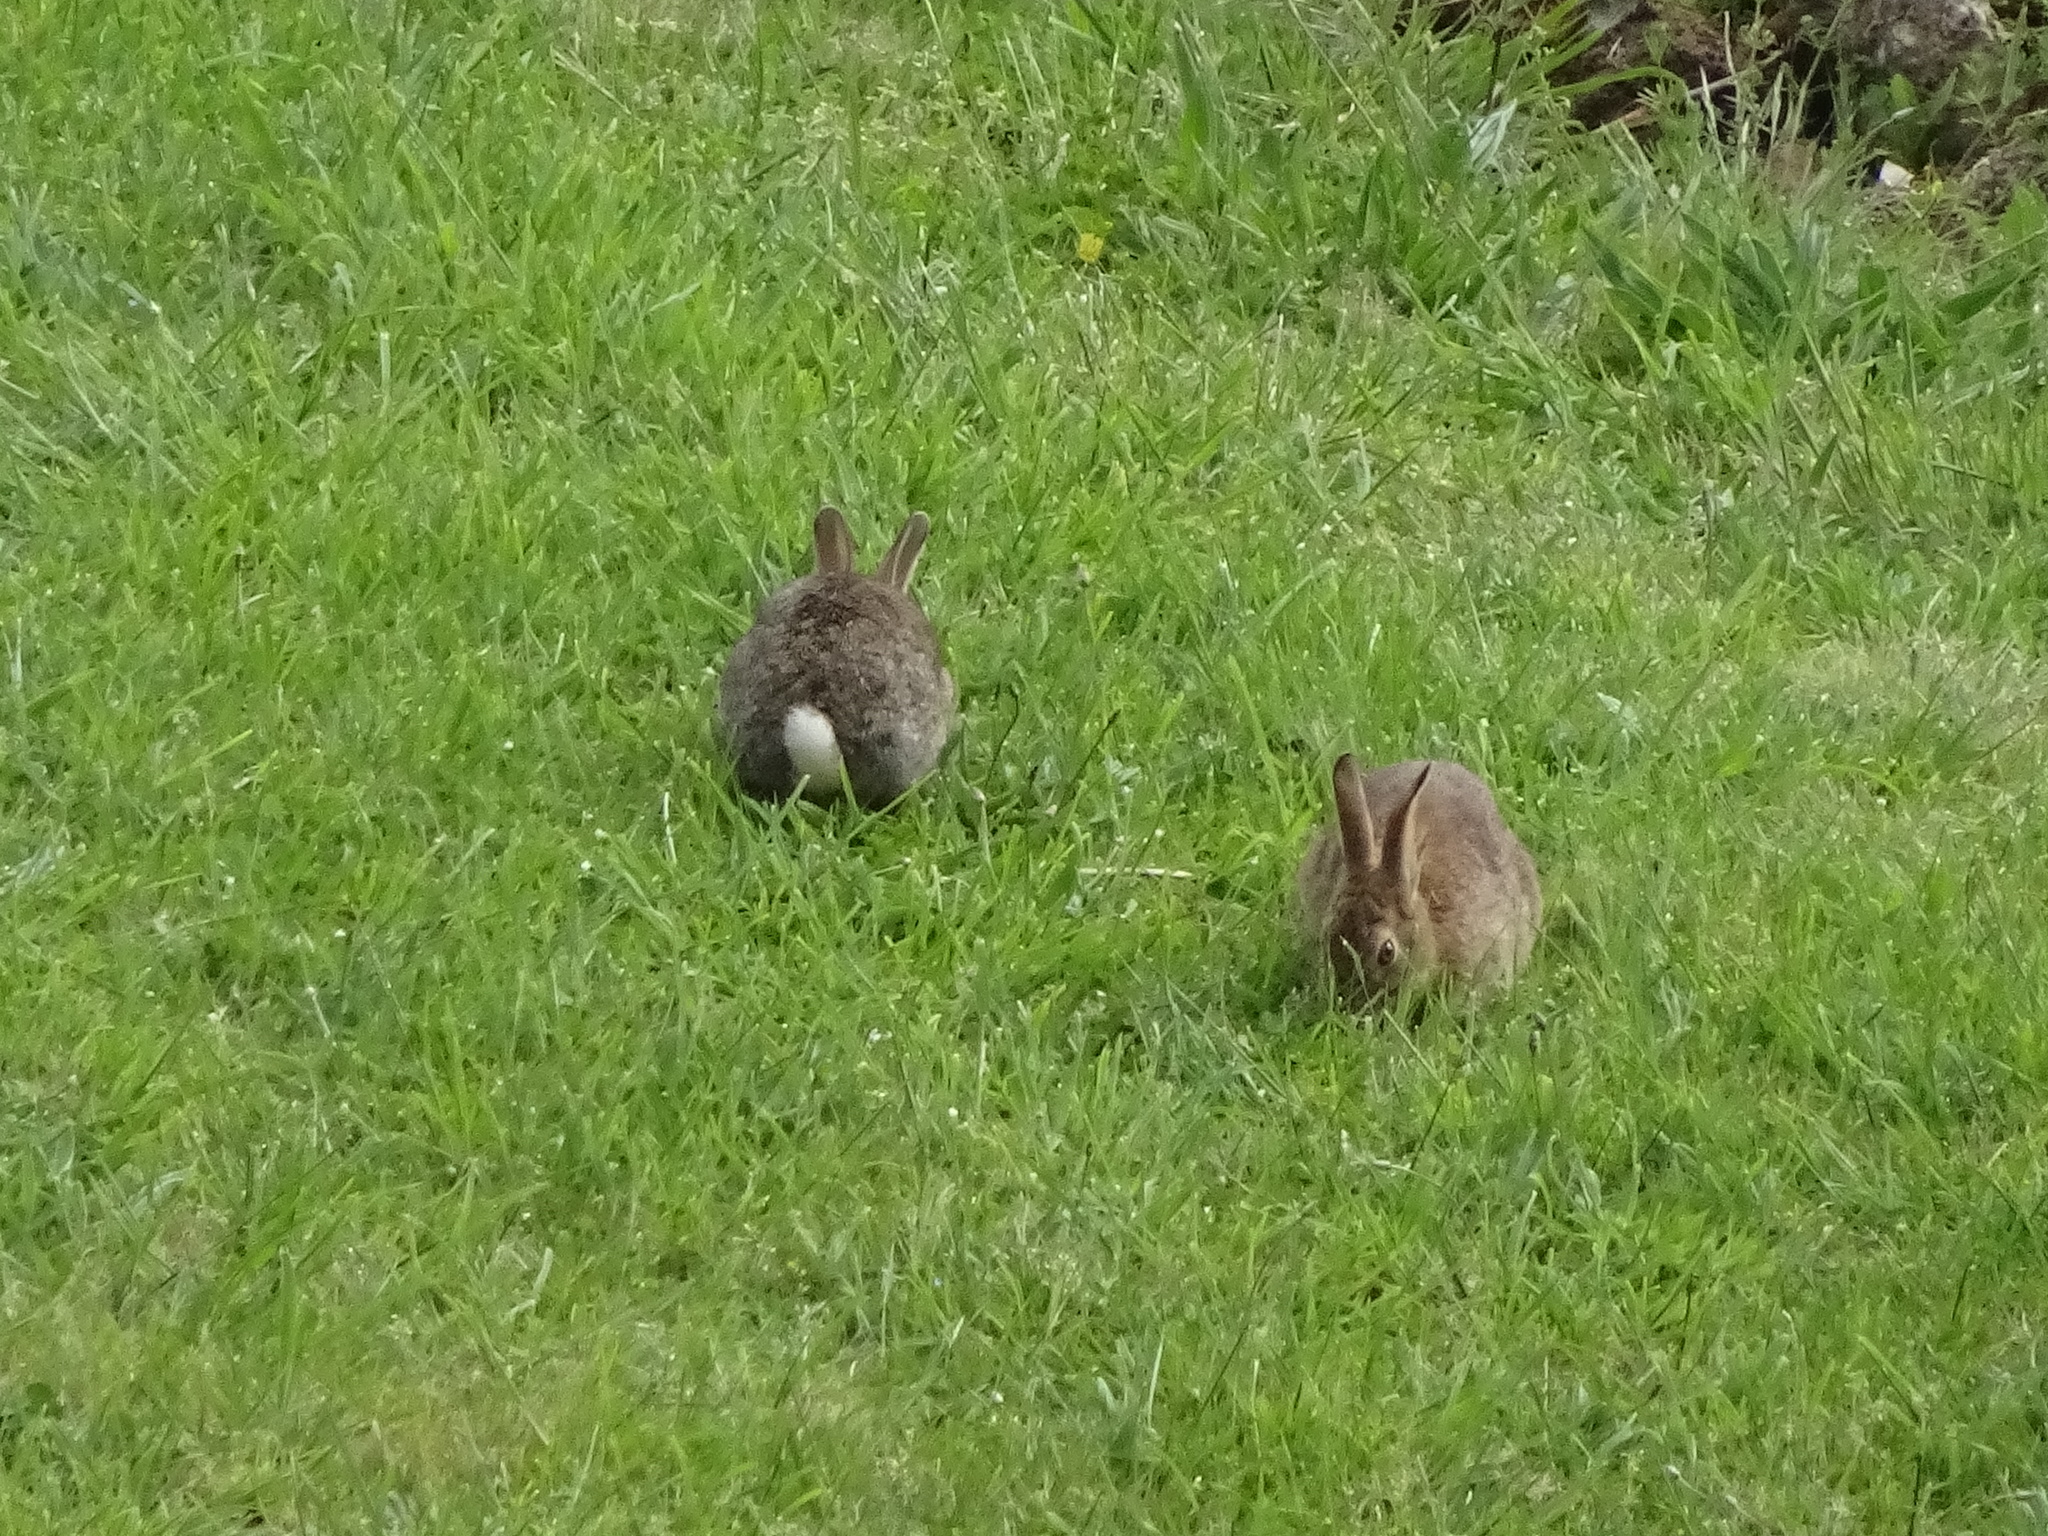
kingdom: Animalia
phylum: Chordata
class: Mammalia
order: Lagomorpha
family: Leporidae
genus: Oryctolagus
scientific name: Oryctolagus cuniculus
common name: European rabbit
